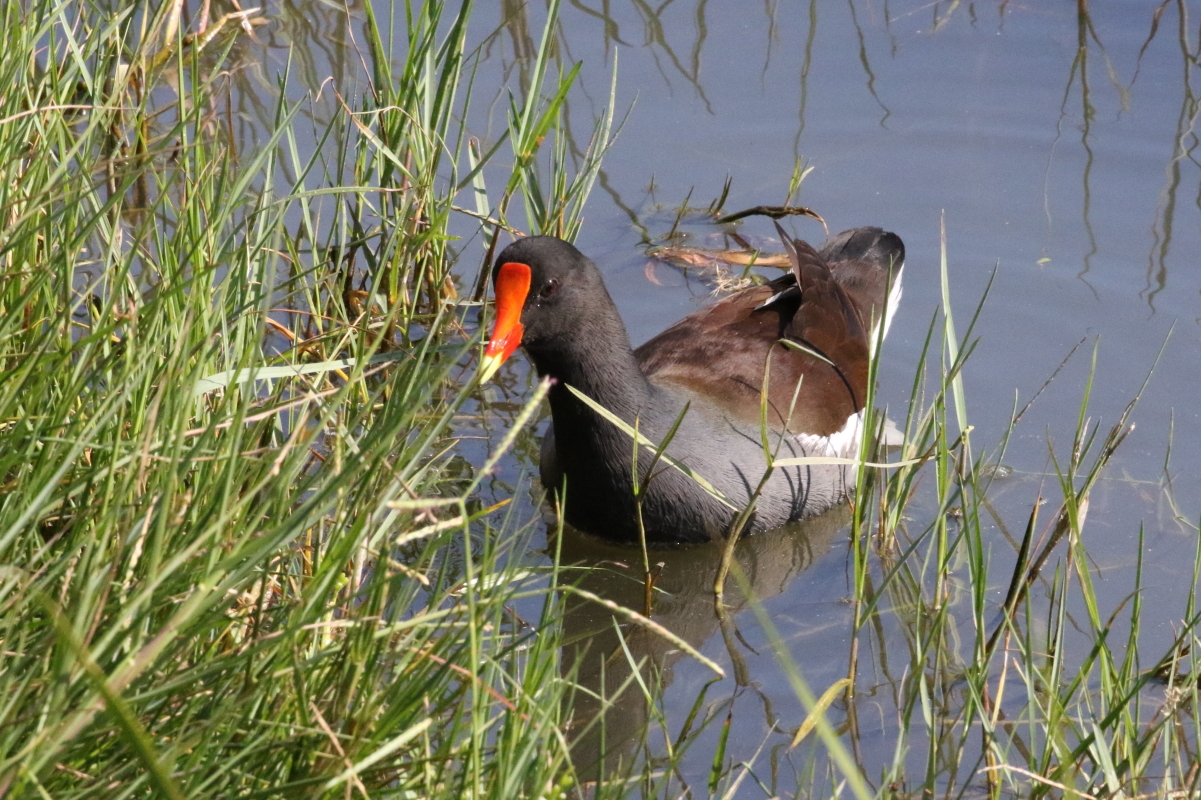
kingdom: Animalia
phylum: Chordata
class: Aves
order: Gruiformes
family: Rallidae
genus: Gallinula
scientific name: Gallinula chloropus
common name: Common moorhen
